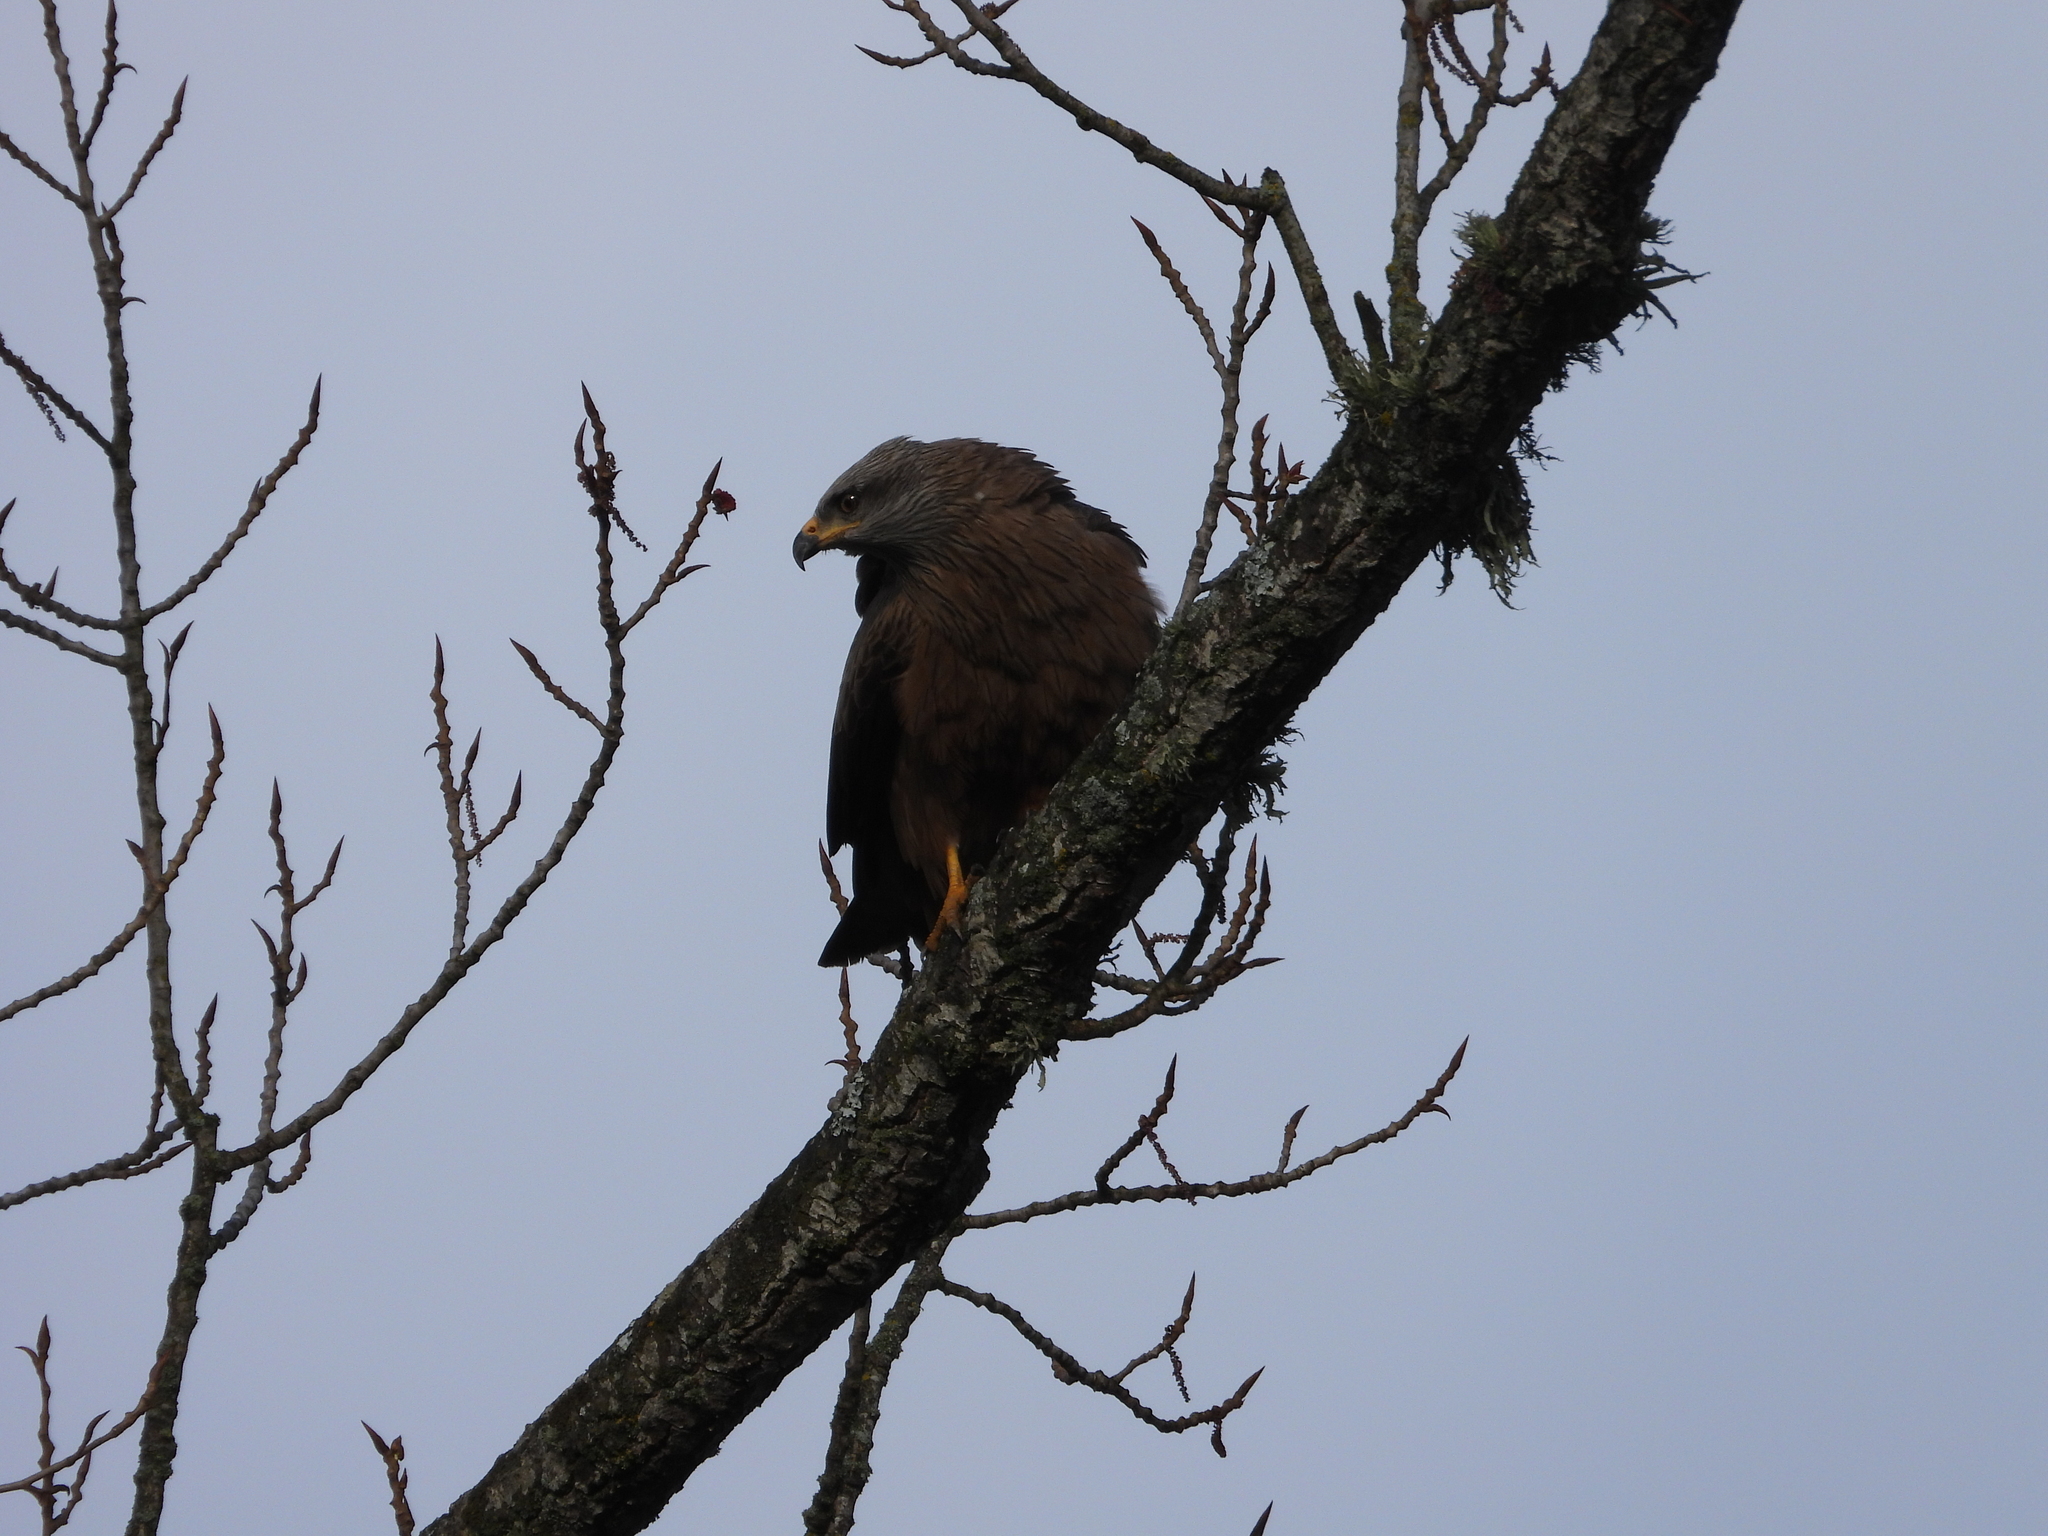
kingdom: Animalia
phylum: Chordata
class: Aves
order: Accipitriformes
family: Accipitridae
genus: Milvus
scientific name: Milvus migrans
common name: Black kite
